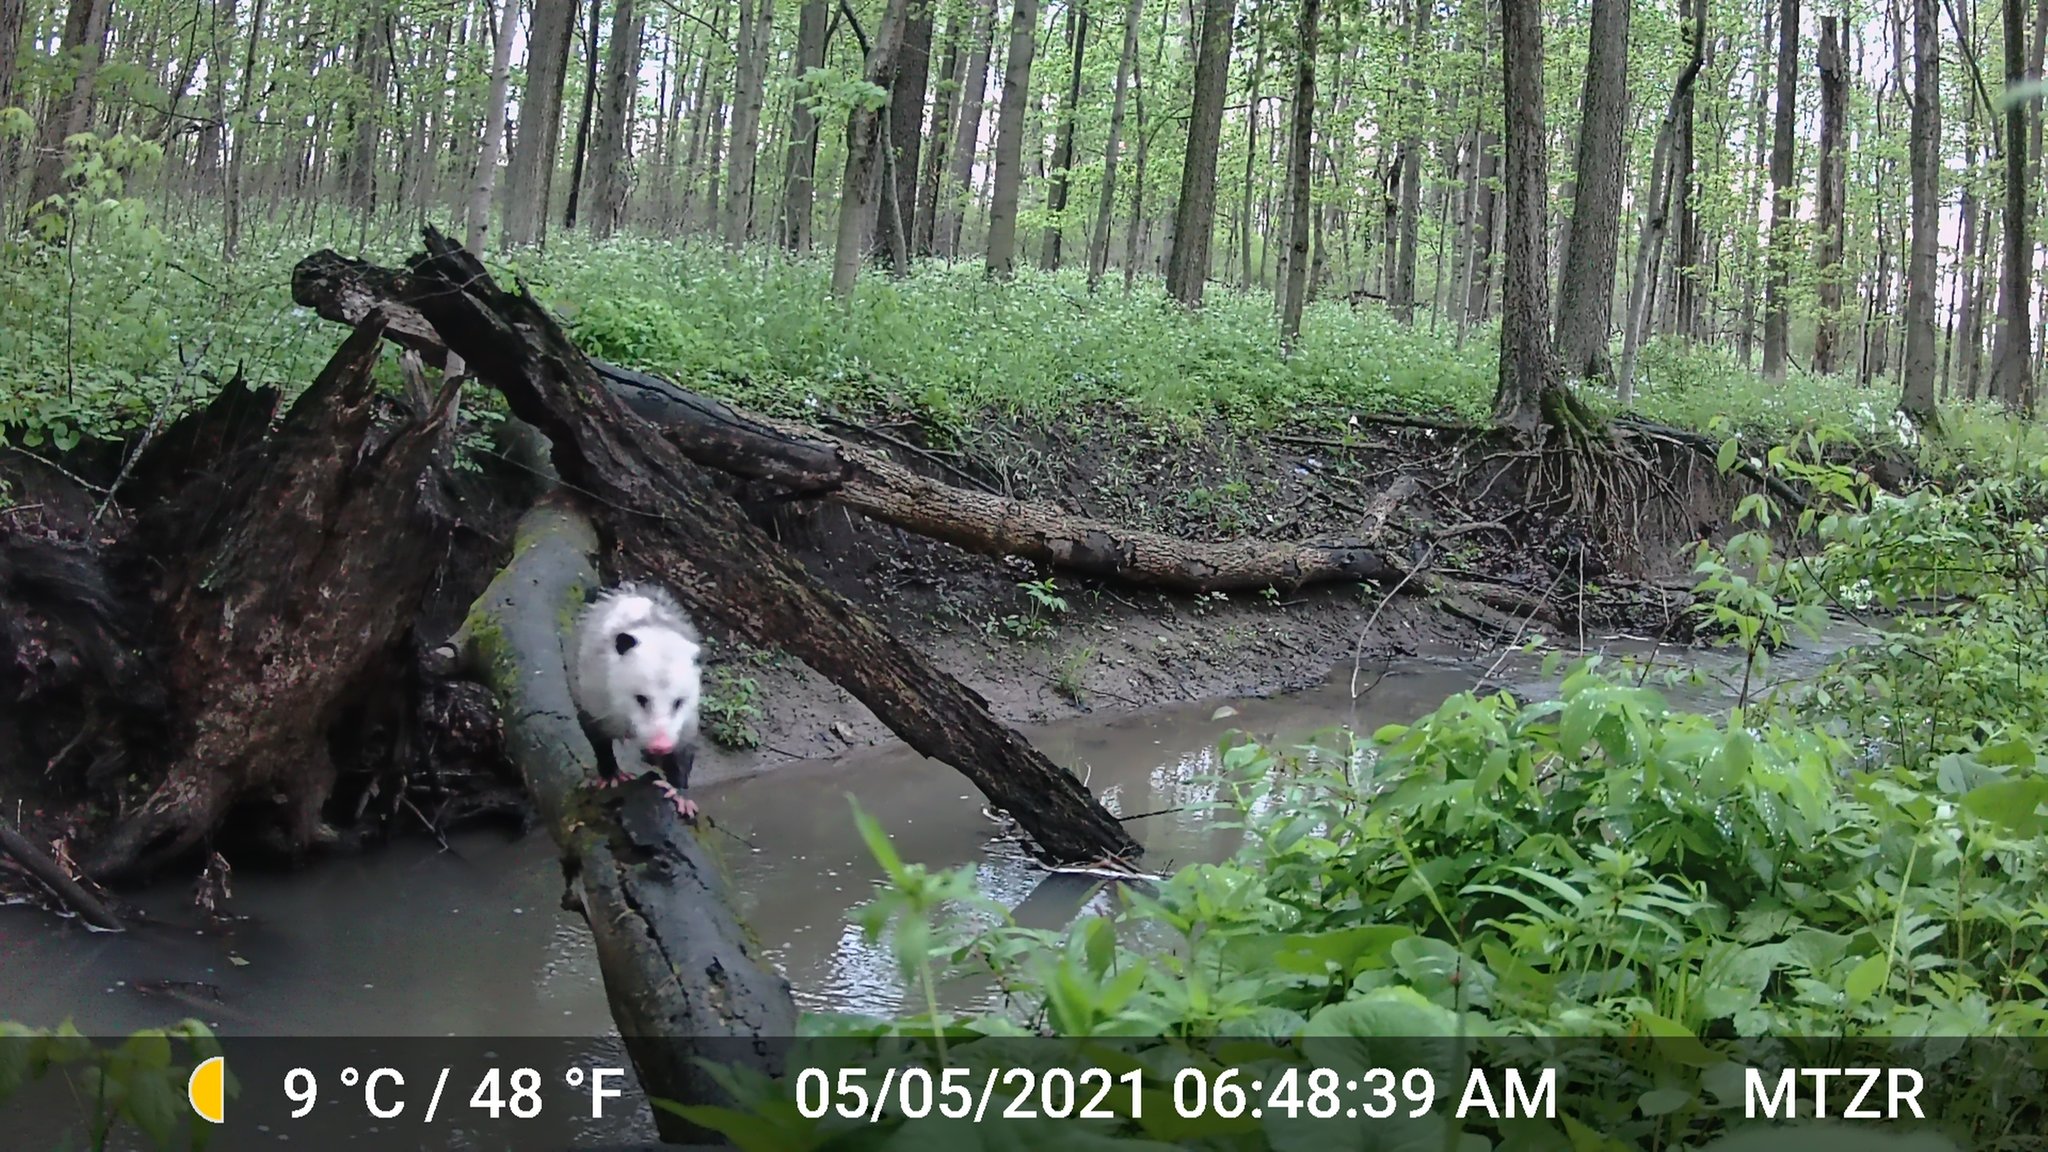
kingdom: Animalia
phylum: Chordata
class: Mammalia
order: Didelphimorphia
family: Didelphidae
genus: Didelphis
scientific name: Didelphis virginiana
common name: Virginia opossum
